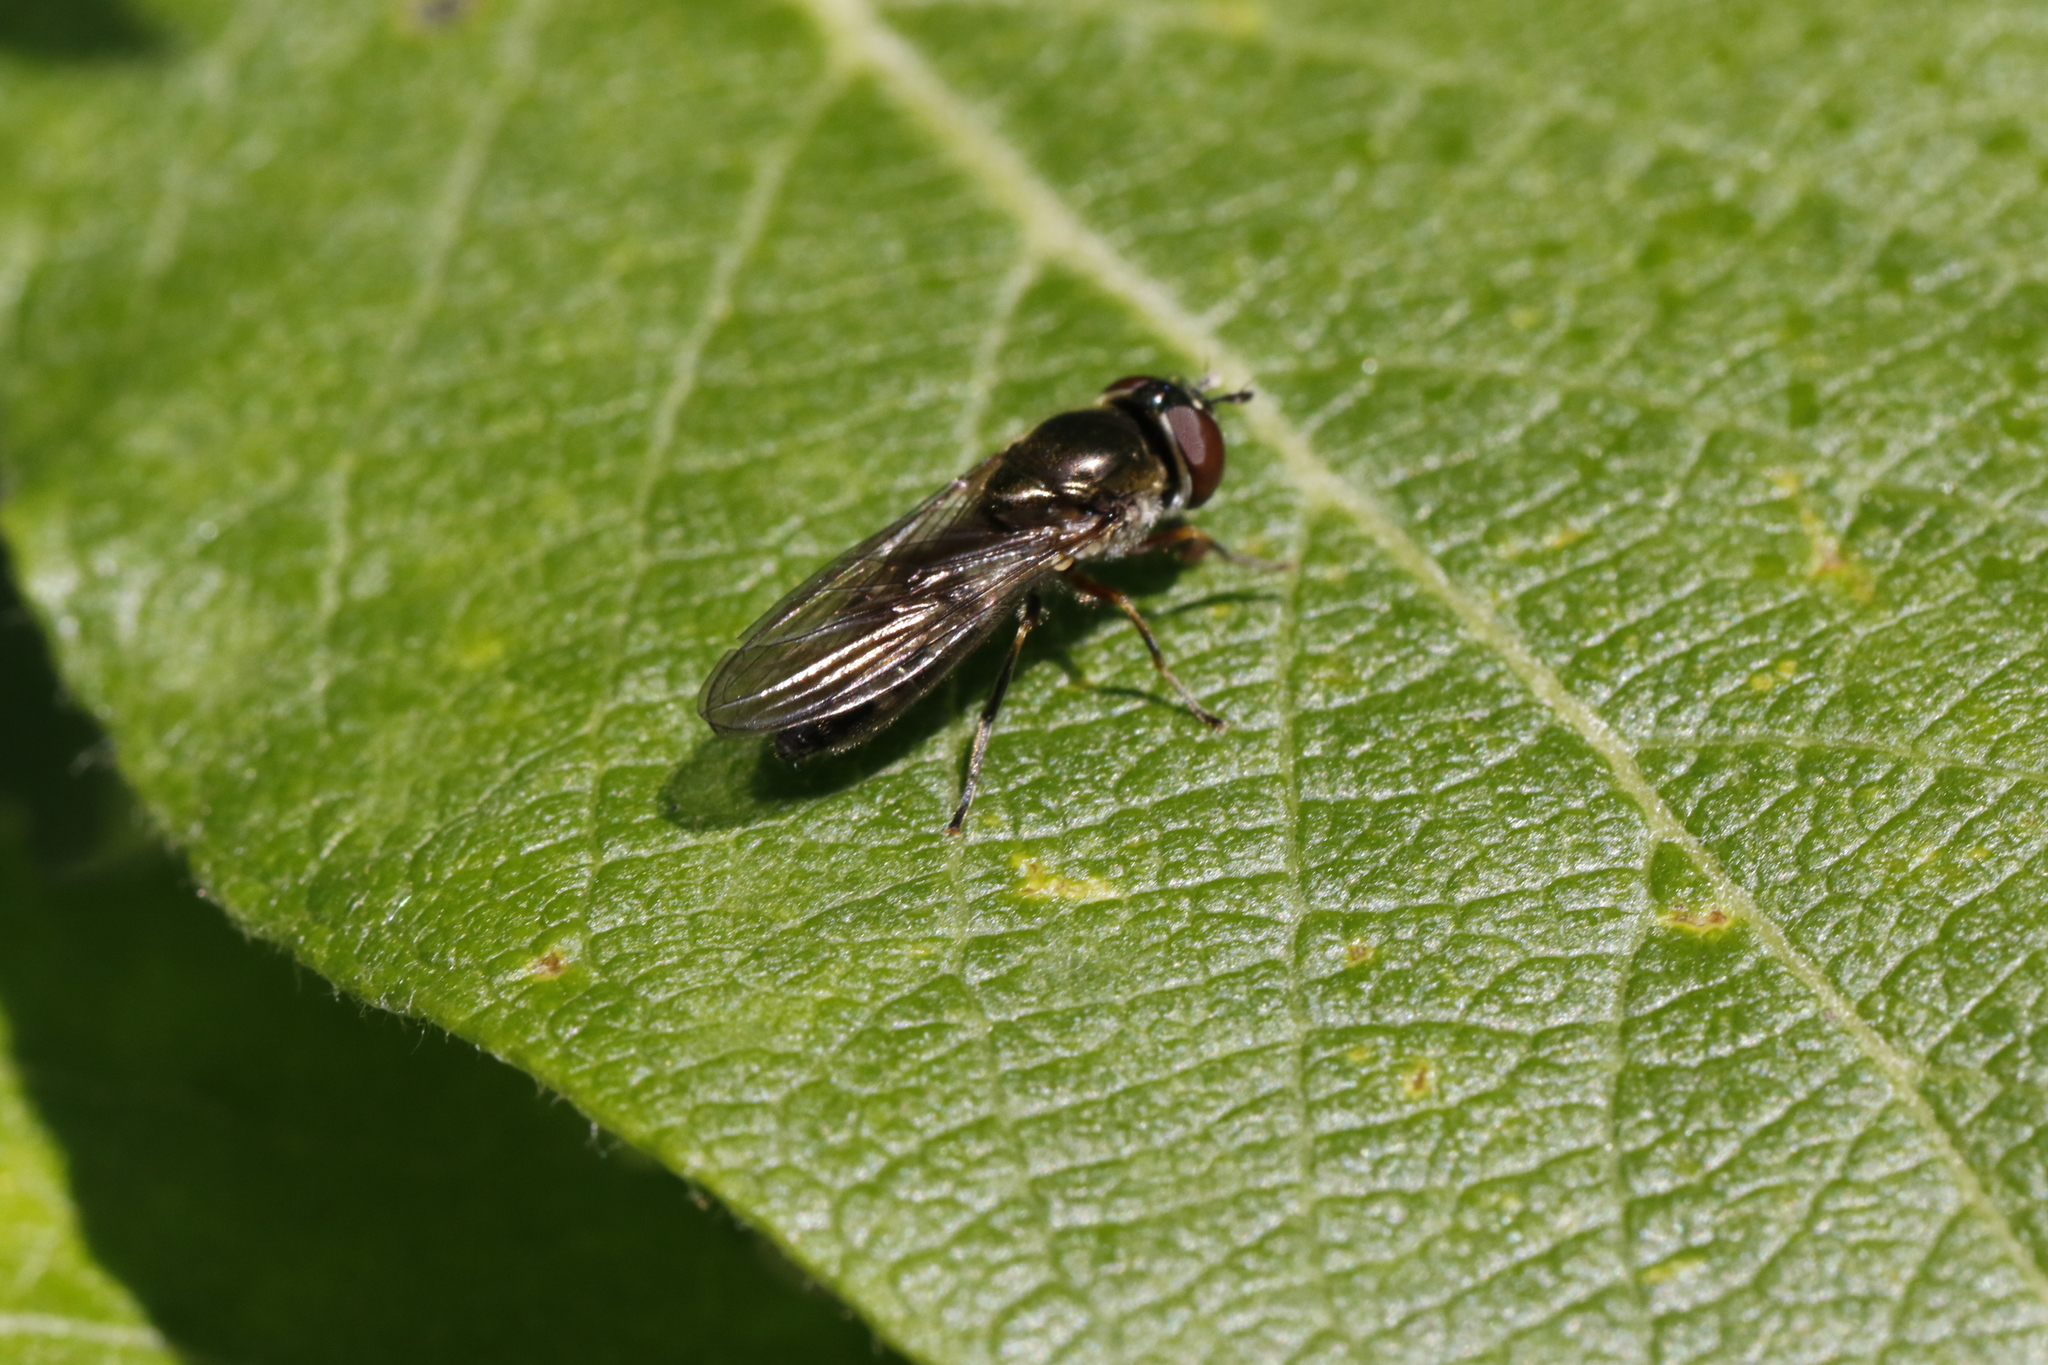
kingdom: Animalia
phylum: Arthropoda
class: Insecta
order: Diptera
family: Syrphidae
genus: Platycheirus
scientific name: Platycheirus albimanus
